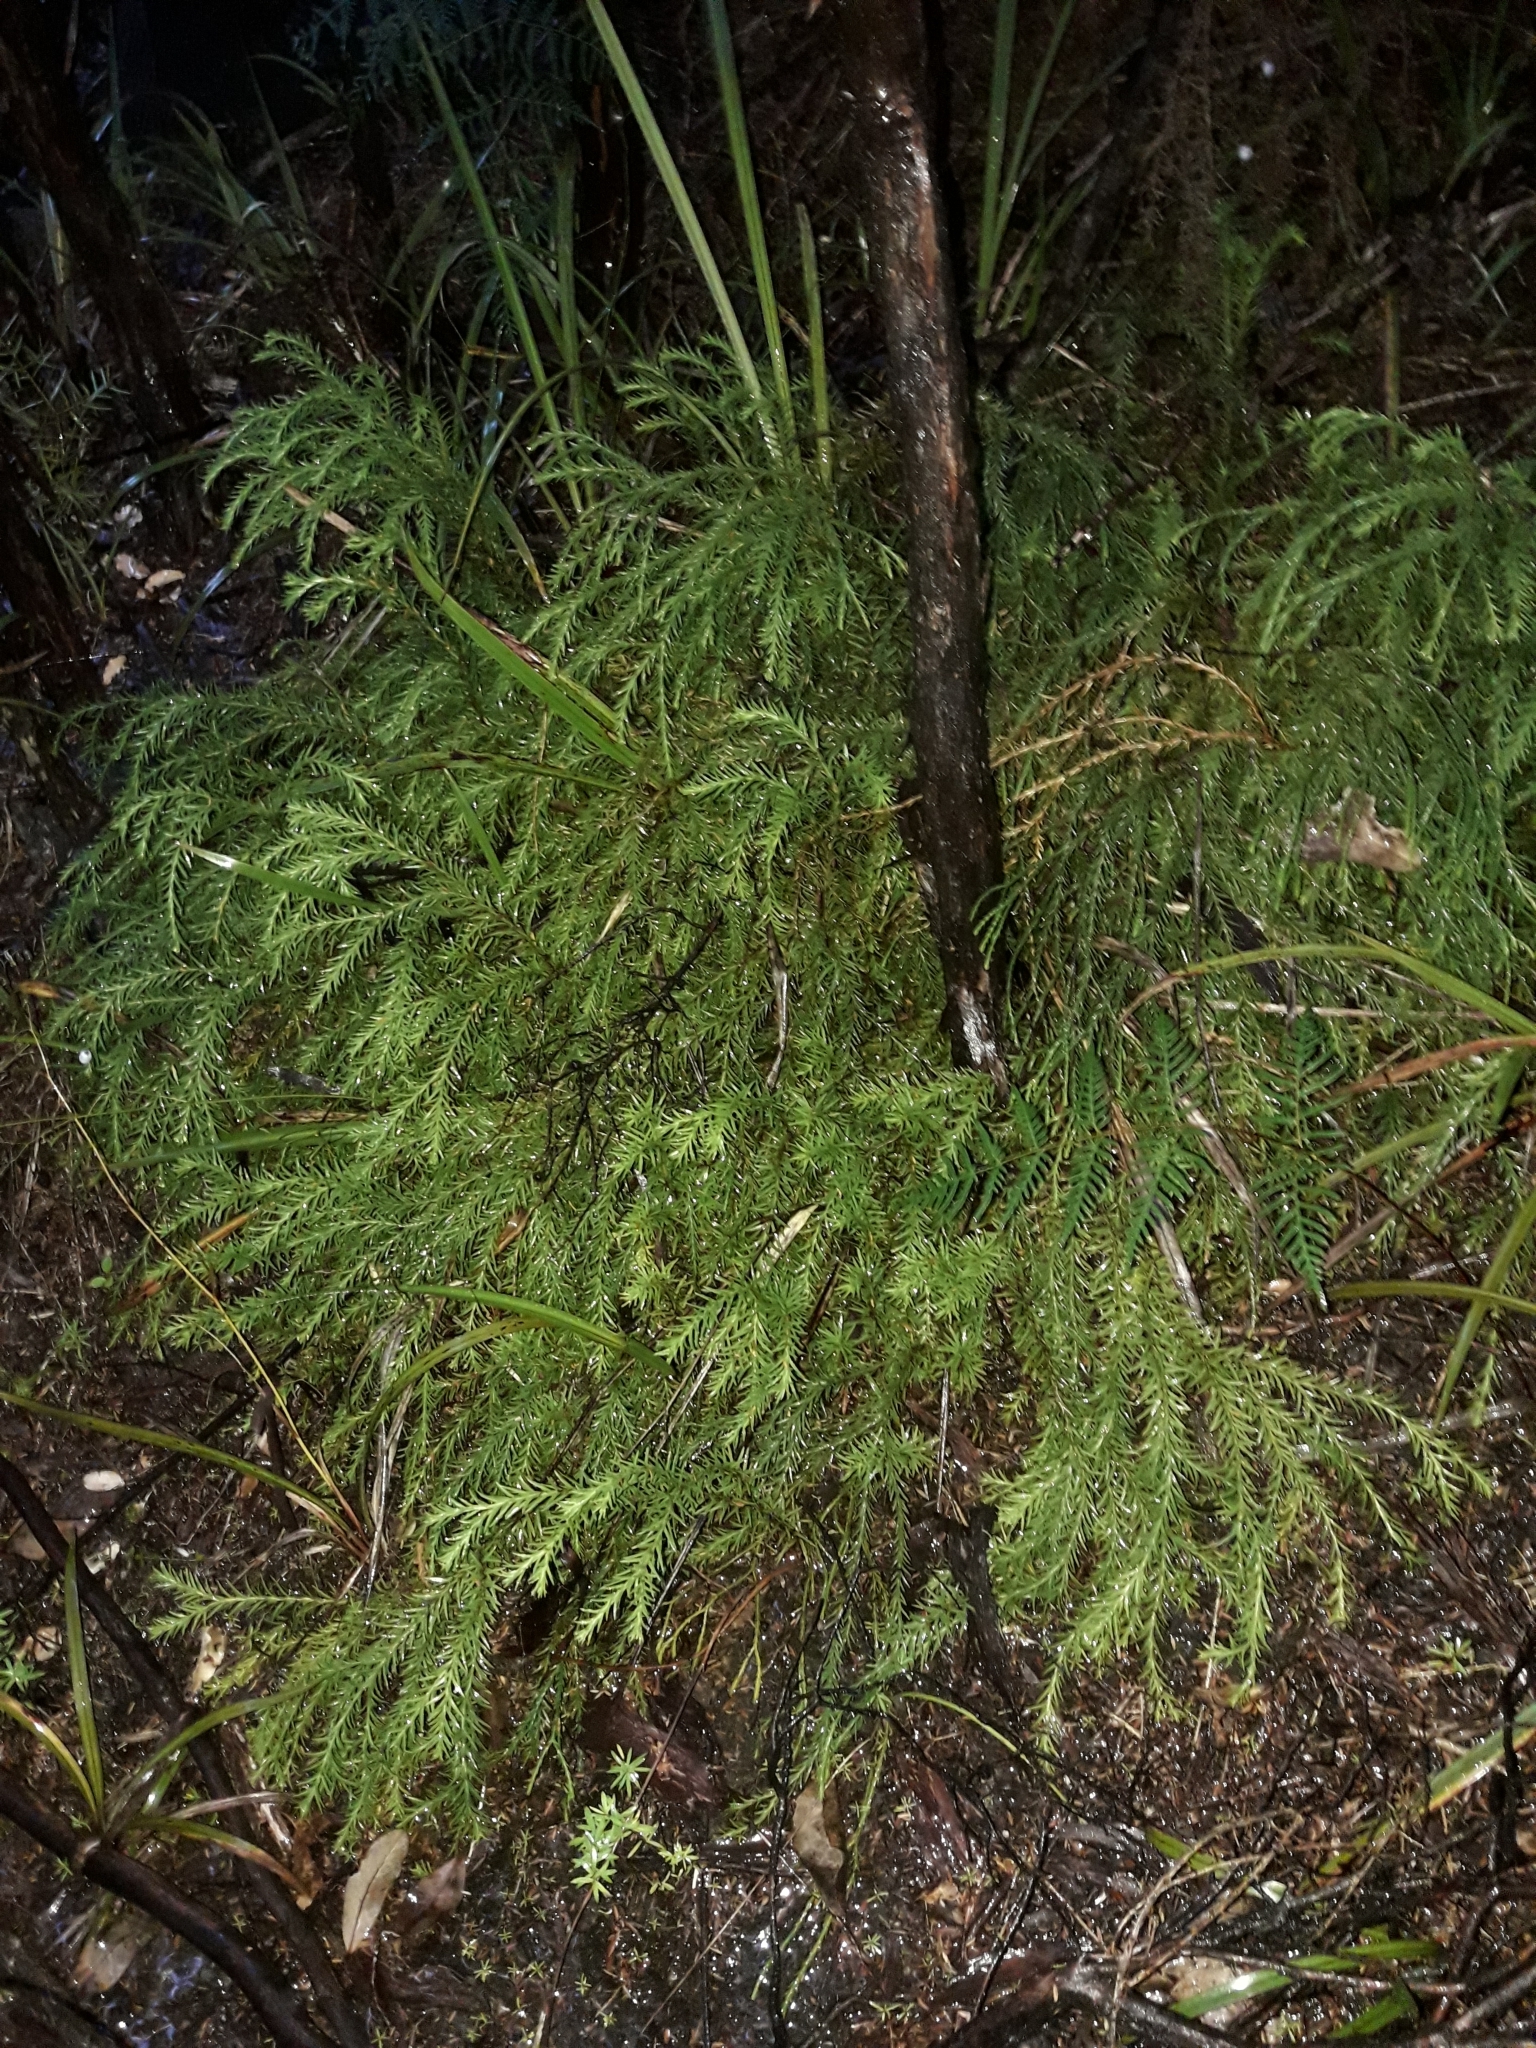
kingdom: Plantae
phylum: Tracheophyta
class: Lycopodiopsida
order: Lycopodiales
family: Lycopodiaceae
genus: Phlegmariurus
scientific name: Phlegmariurus billardierei
